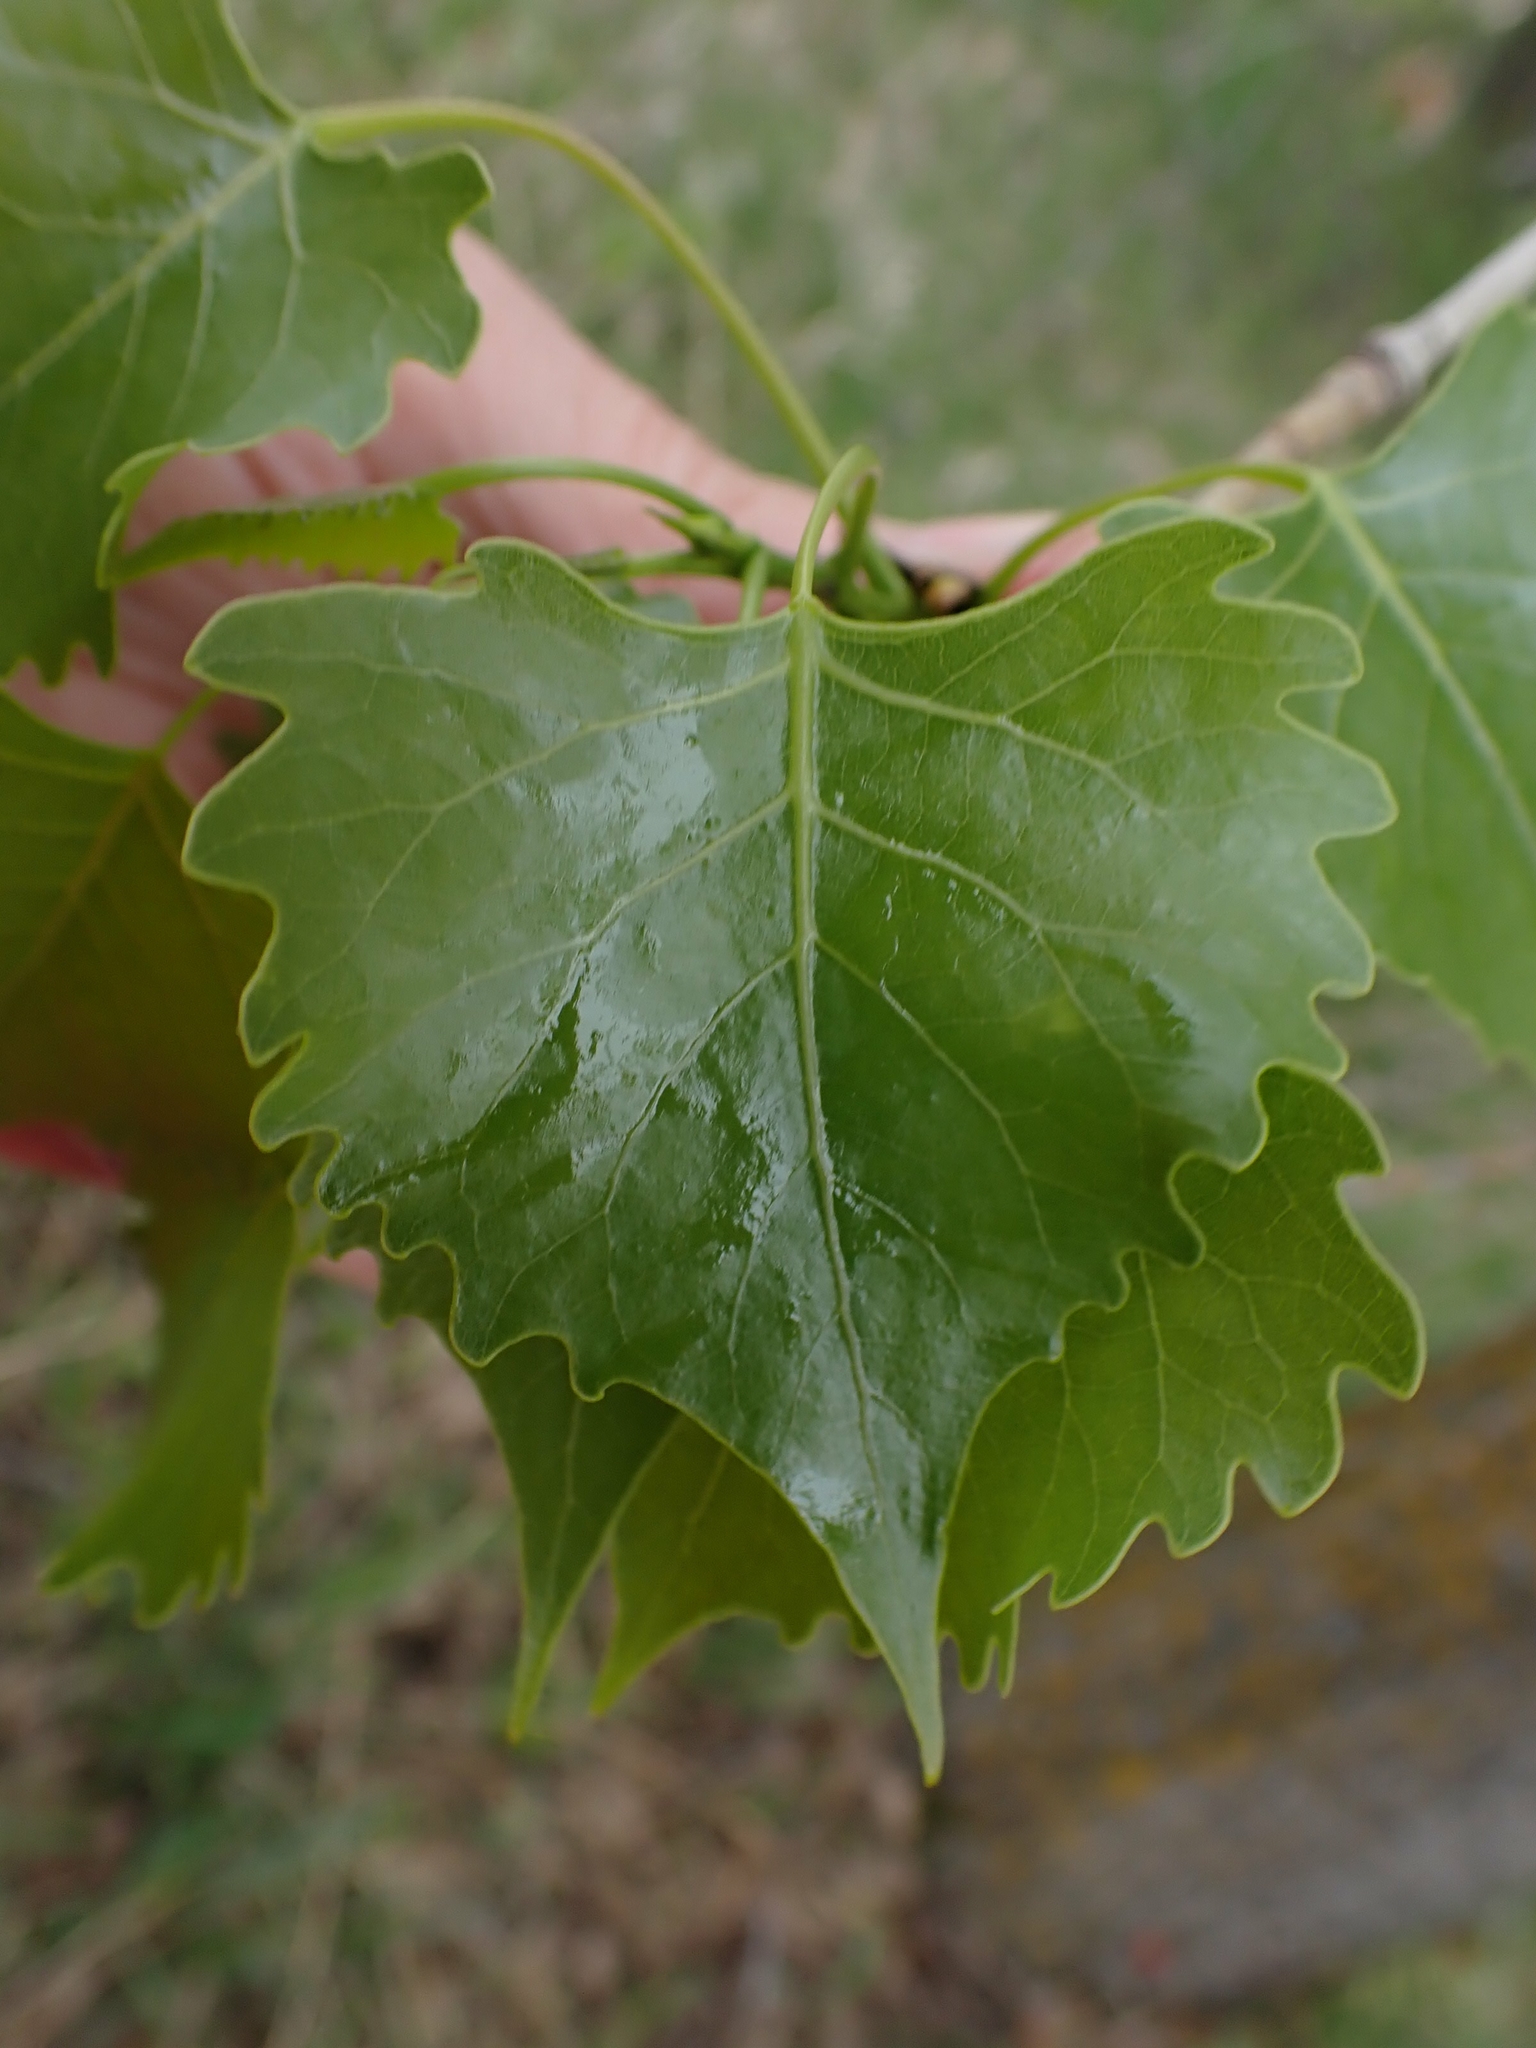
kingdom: Plantae
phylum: Tracheophyta
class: Magnoliopsida
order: Malpighiales
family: Salicaceae
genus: Populus
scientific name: Populus deltoides
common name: Eastern cottonwood
